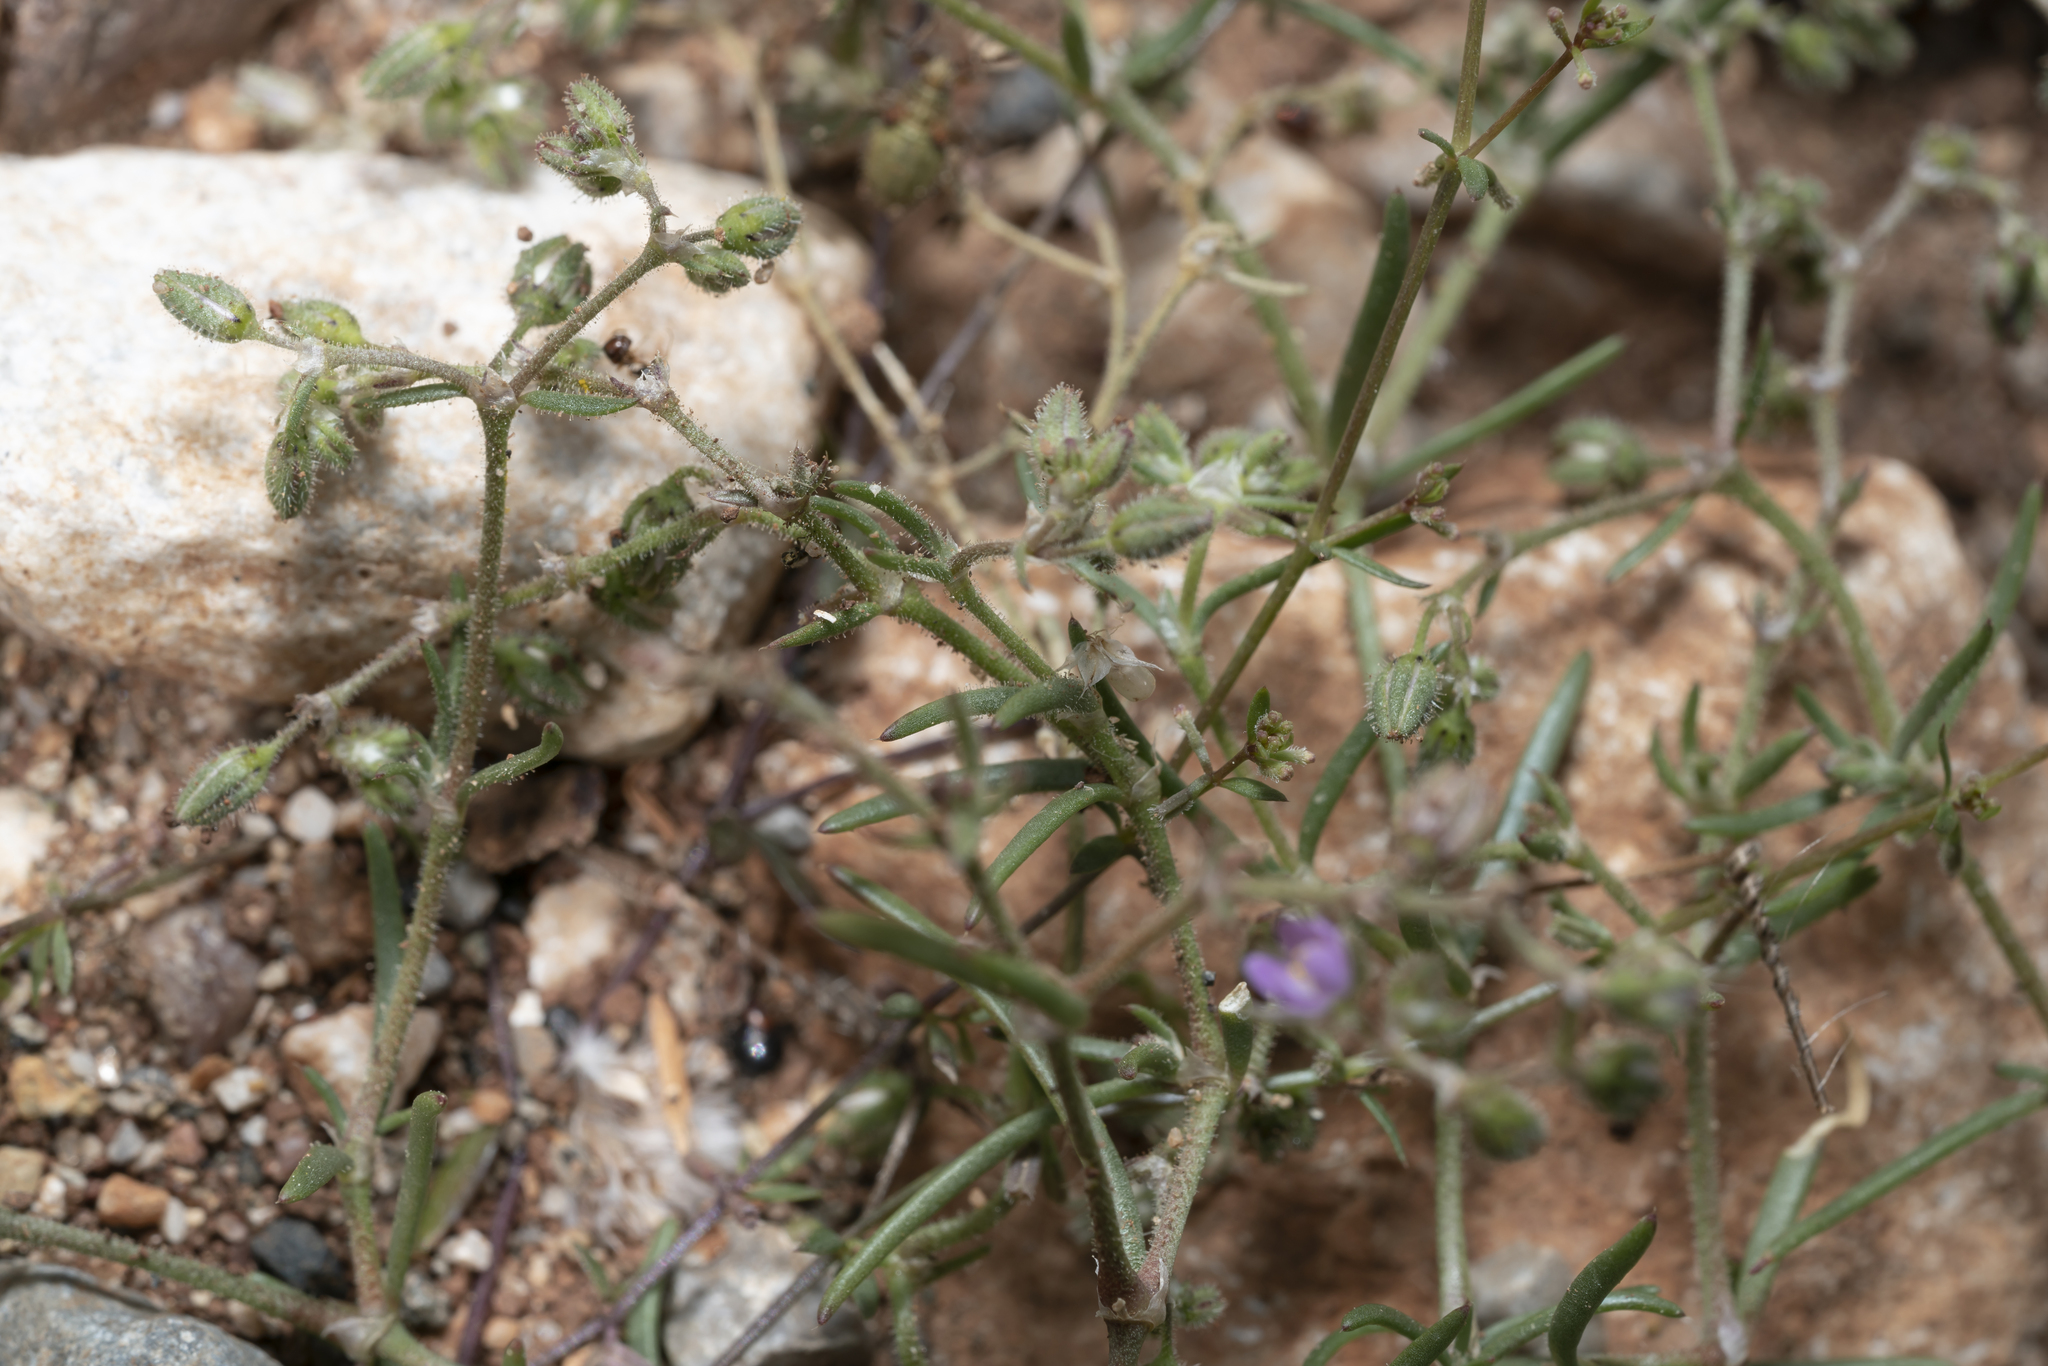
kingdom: Plantae
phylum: Tracheophyta
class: Magnoliopsida
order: Caryophyllales
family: Caryophyllaceae
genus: Spergularia
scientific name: Spergularia bocconei
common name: Greek sea-spurrey
